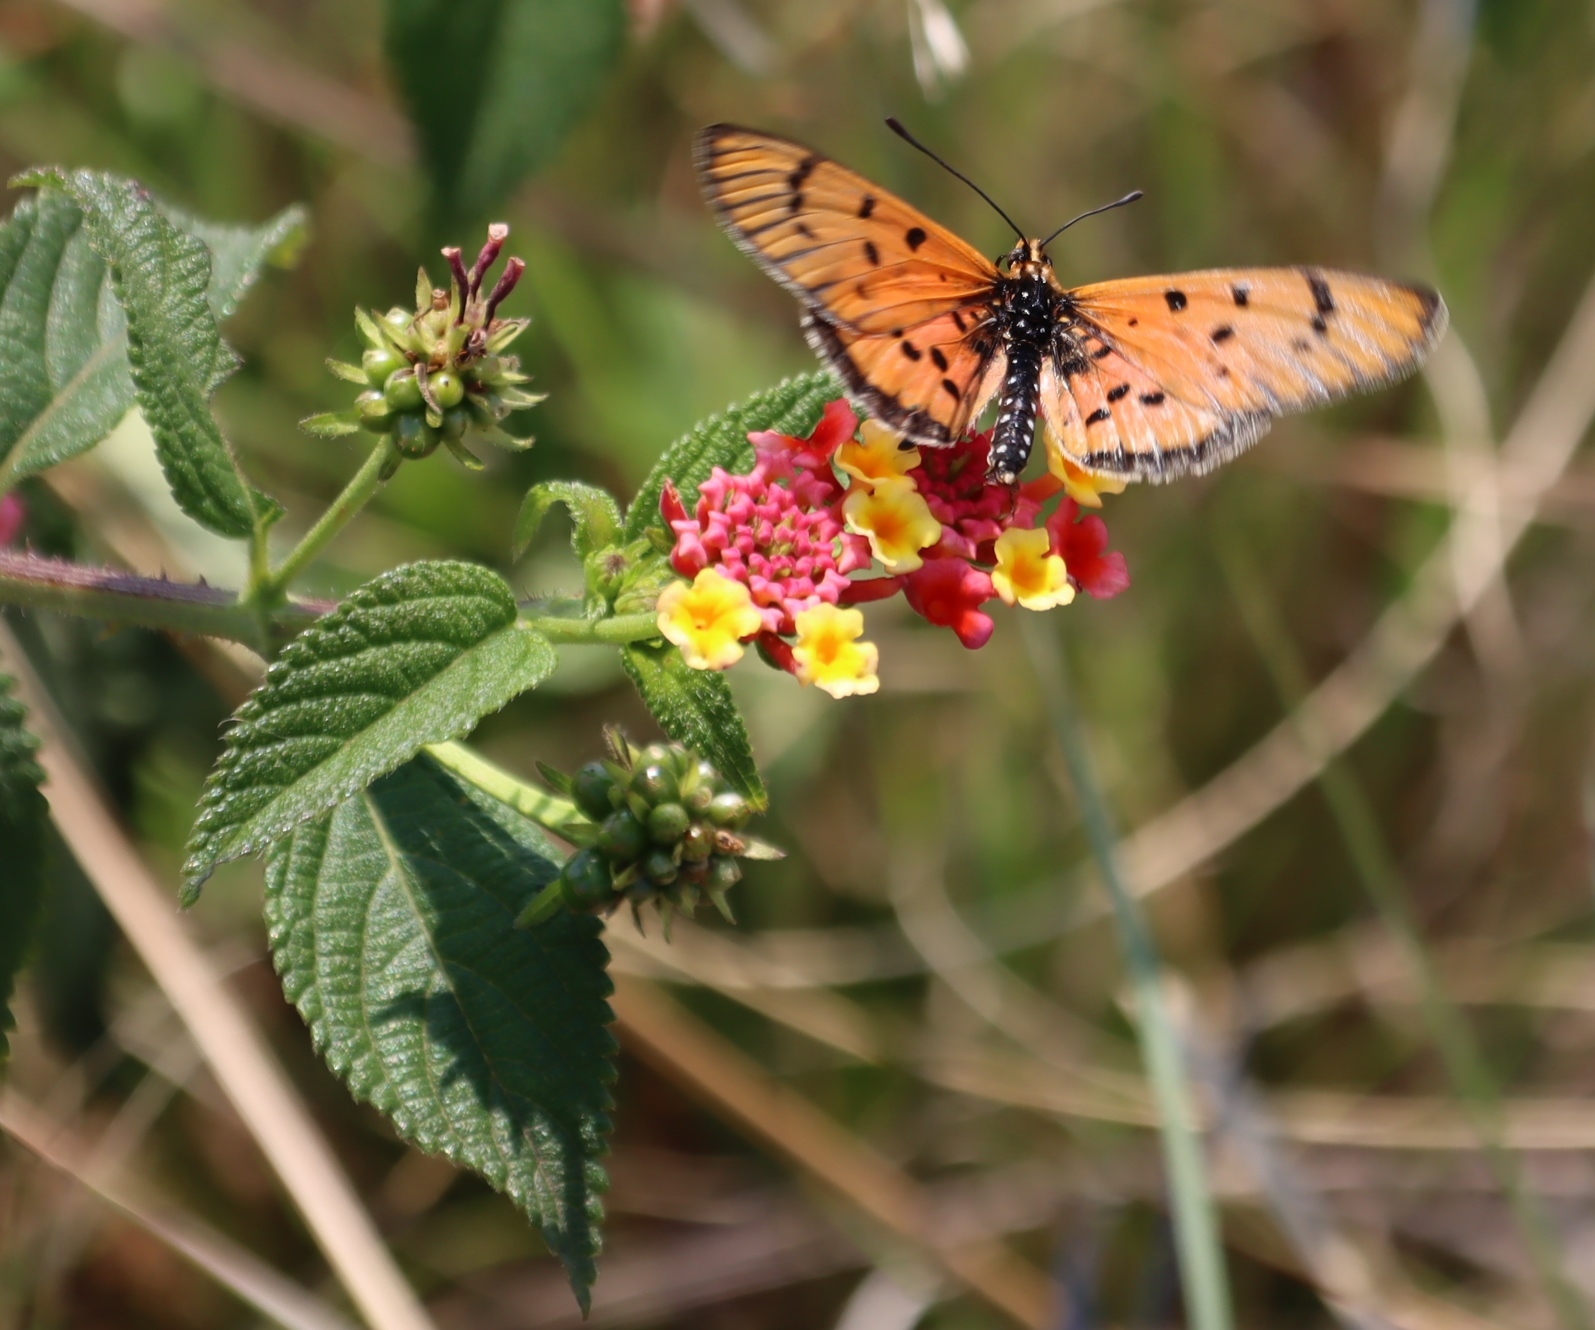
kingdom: Animalia
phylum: Arthropoda
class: Insecta
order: Lepidoptera
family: Nymphalidae
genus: Rubraea
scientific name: Rubraea
